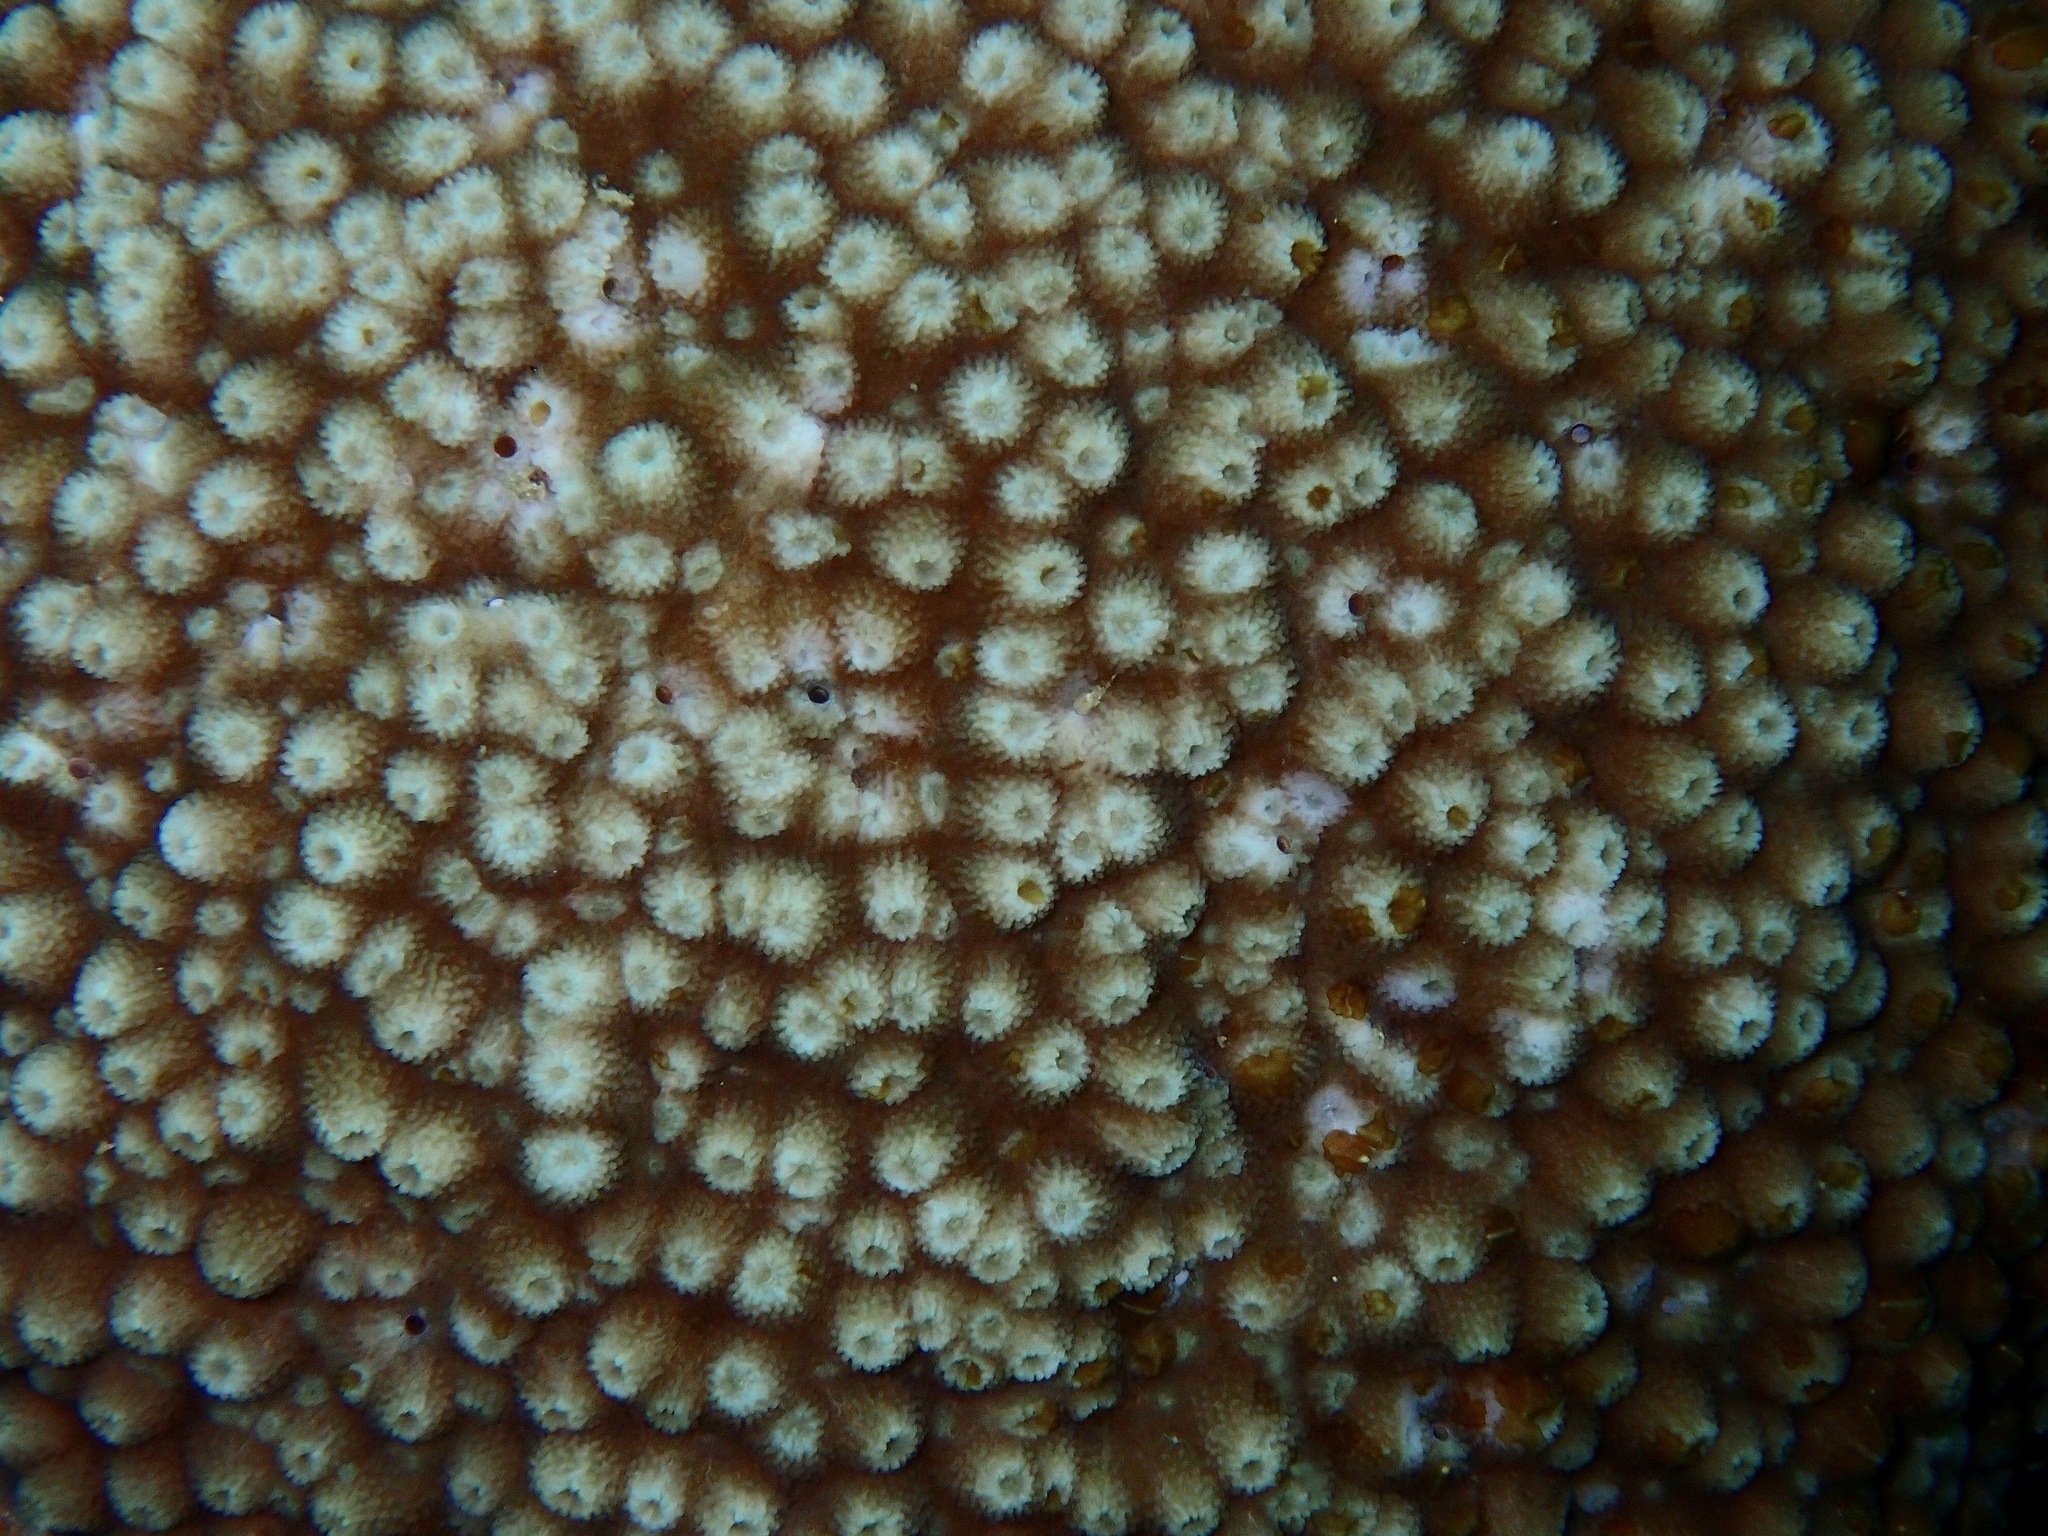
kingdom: Animalia
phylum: Cnidaria
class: Anthozoa
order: Scleractinia
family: Acroporidae
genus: Astreopora
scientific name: Astreopora myriophthalma
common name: Starflower coral
